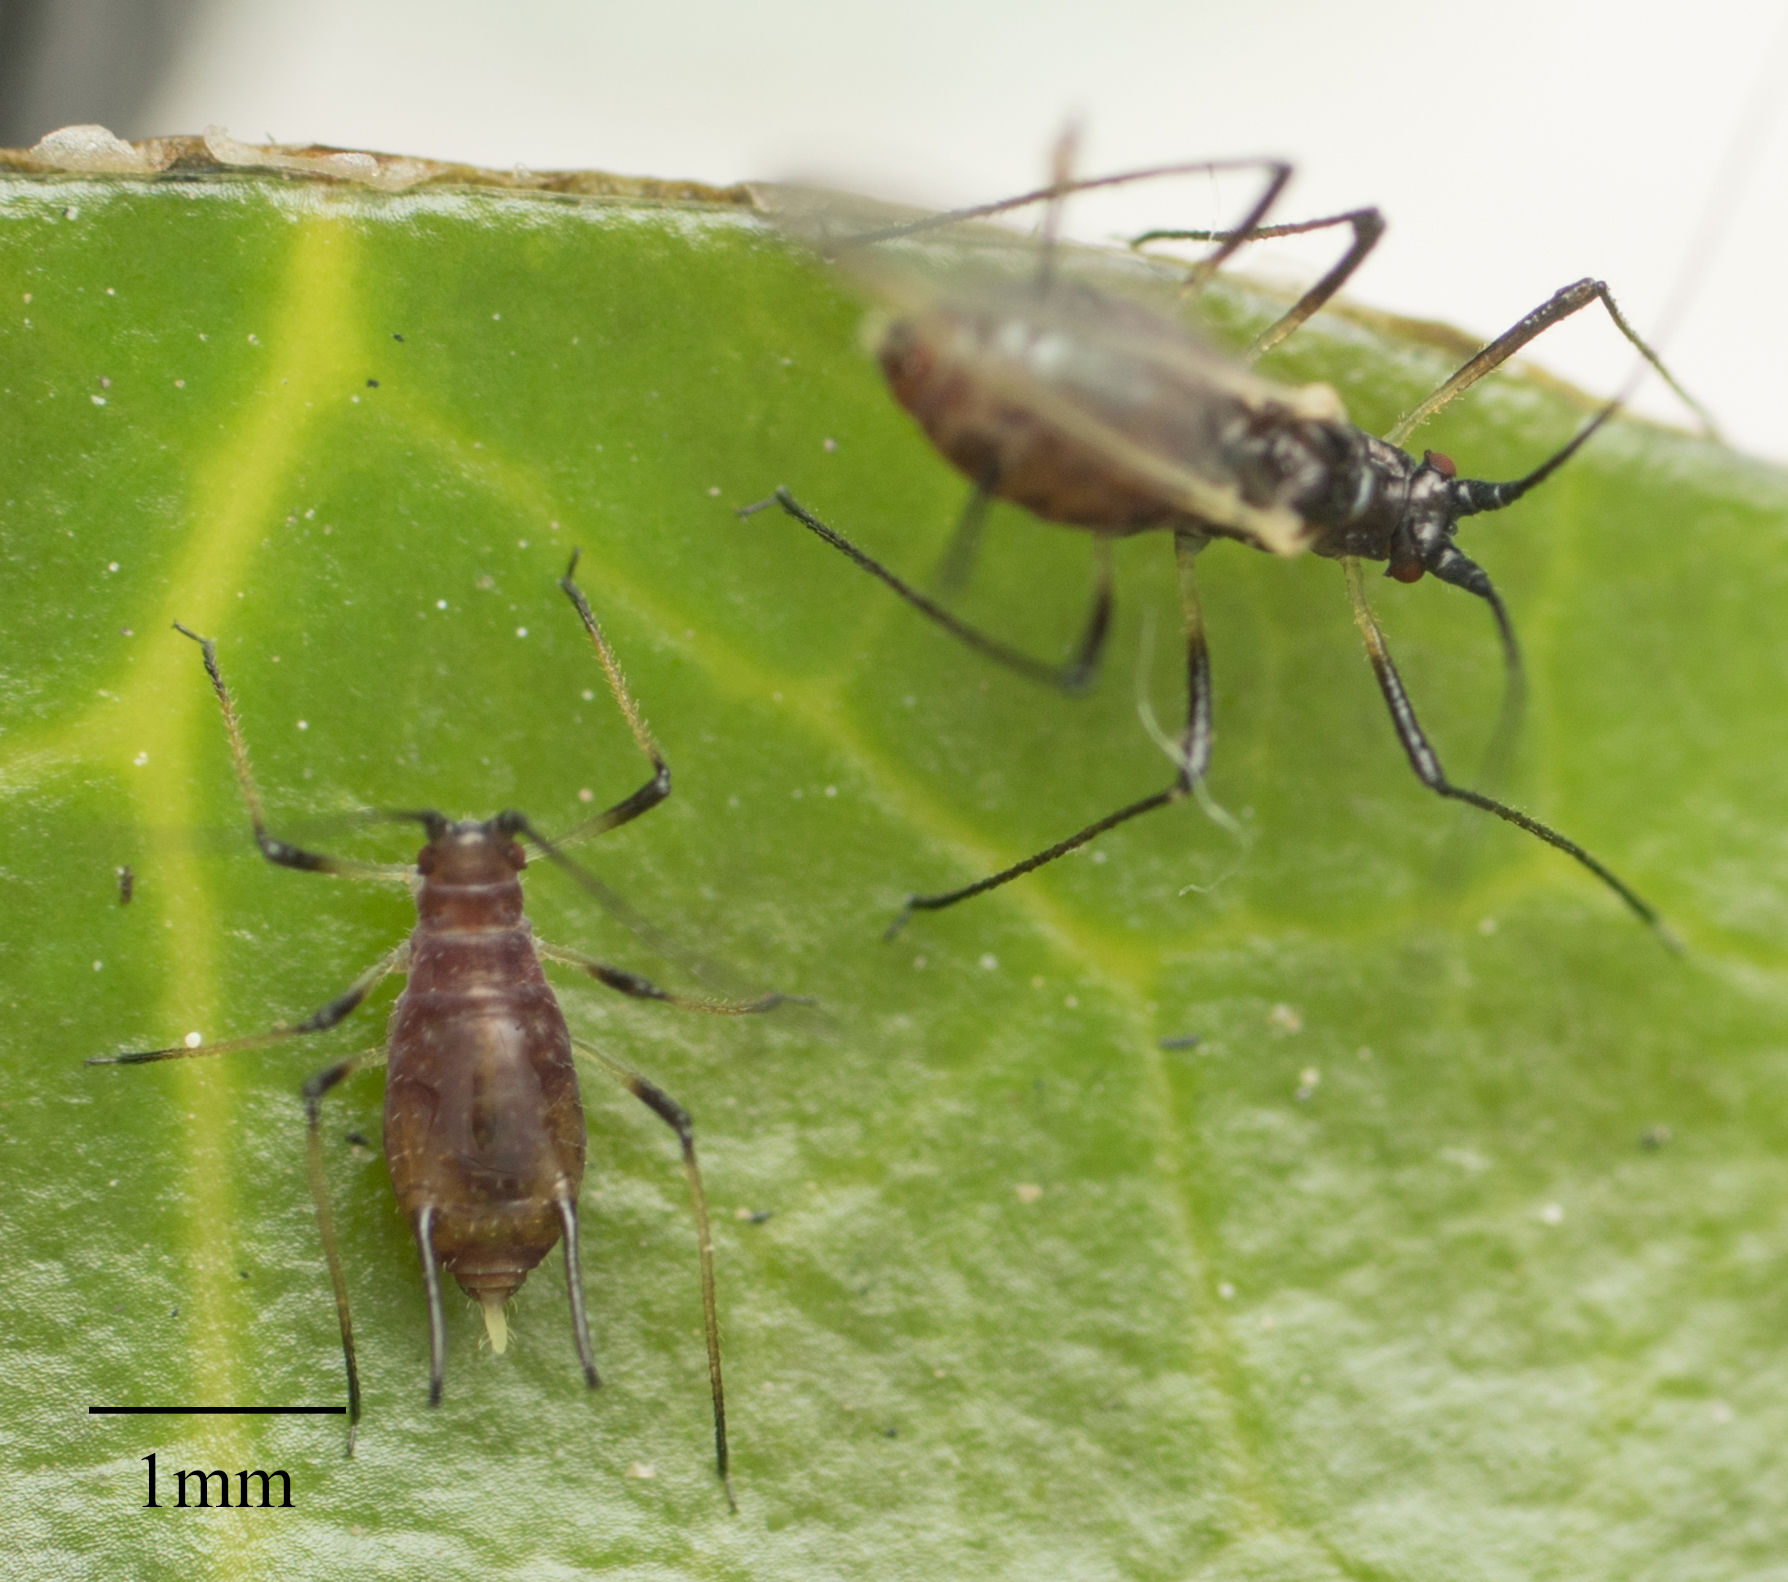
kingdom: Animalia
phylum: Arthropoda
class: Insecta
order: Hemiptera
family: Aphididae
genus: Macrosiphum
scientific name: Macrosiphum rosae
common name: Rose aphid
